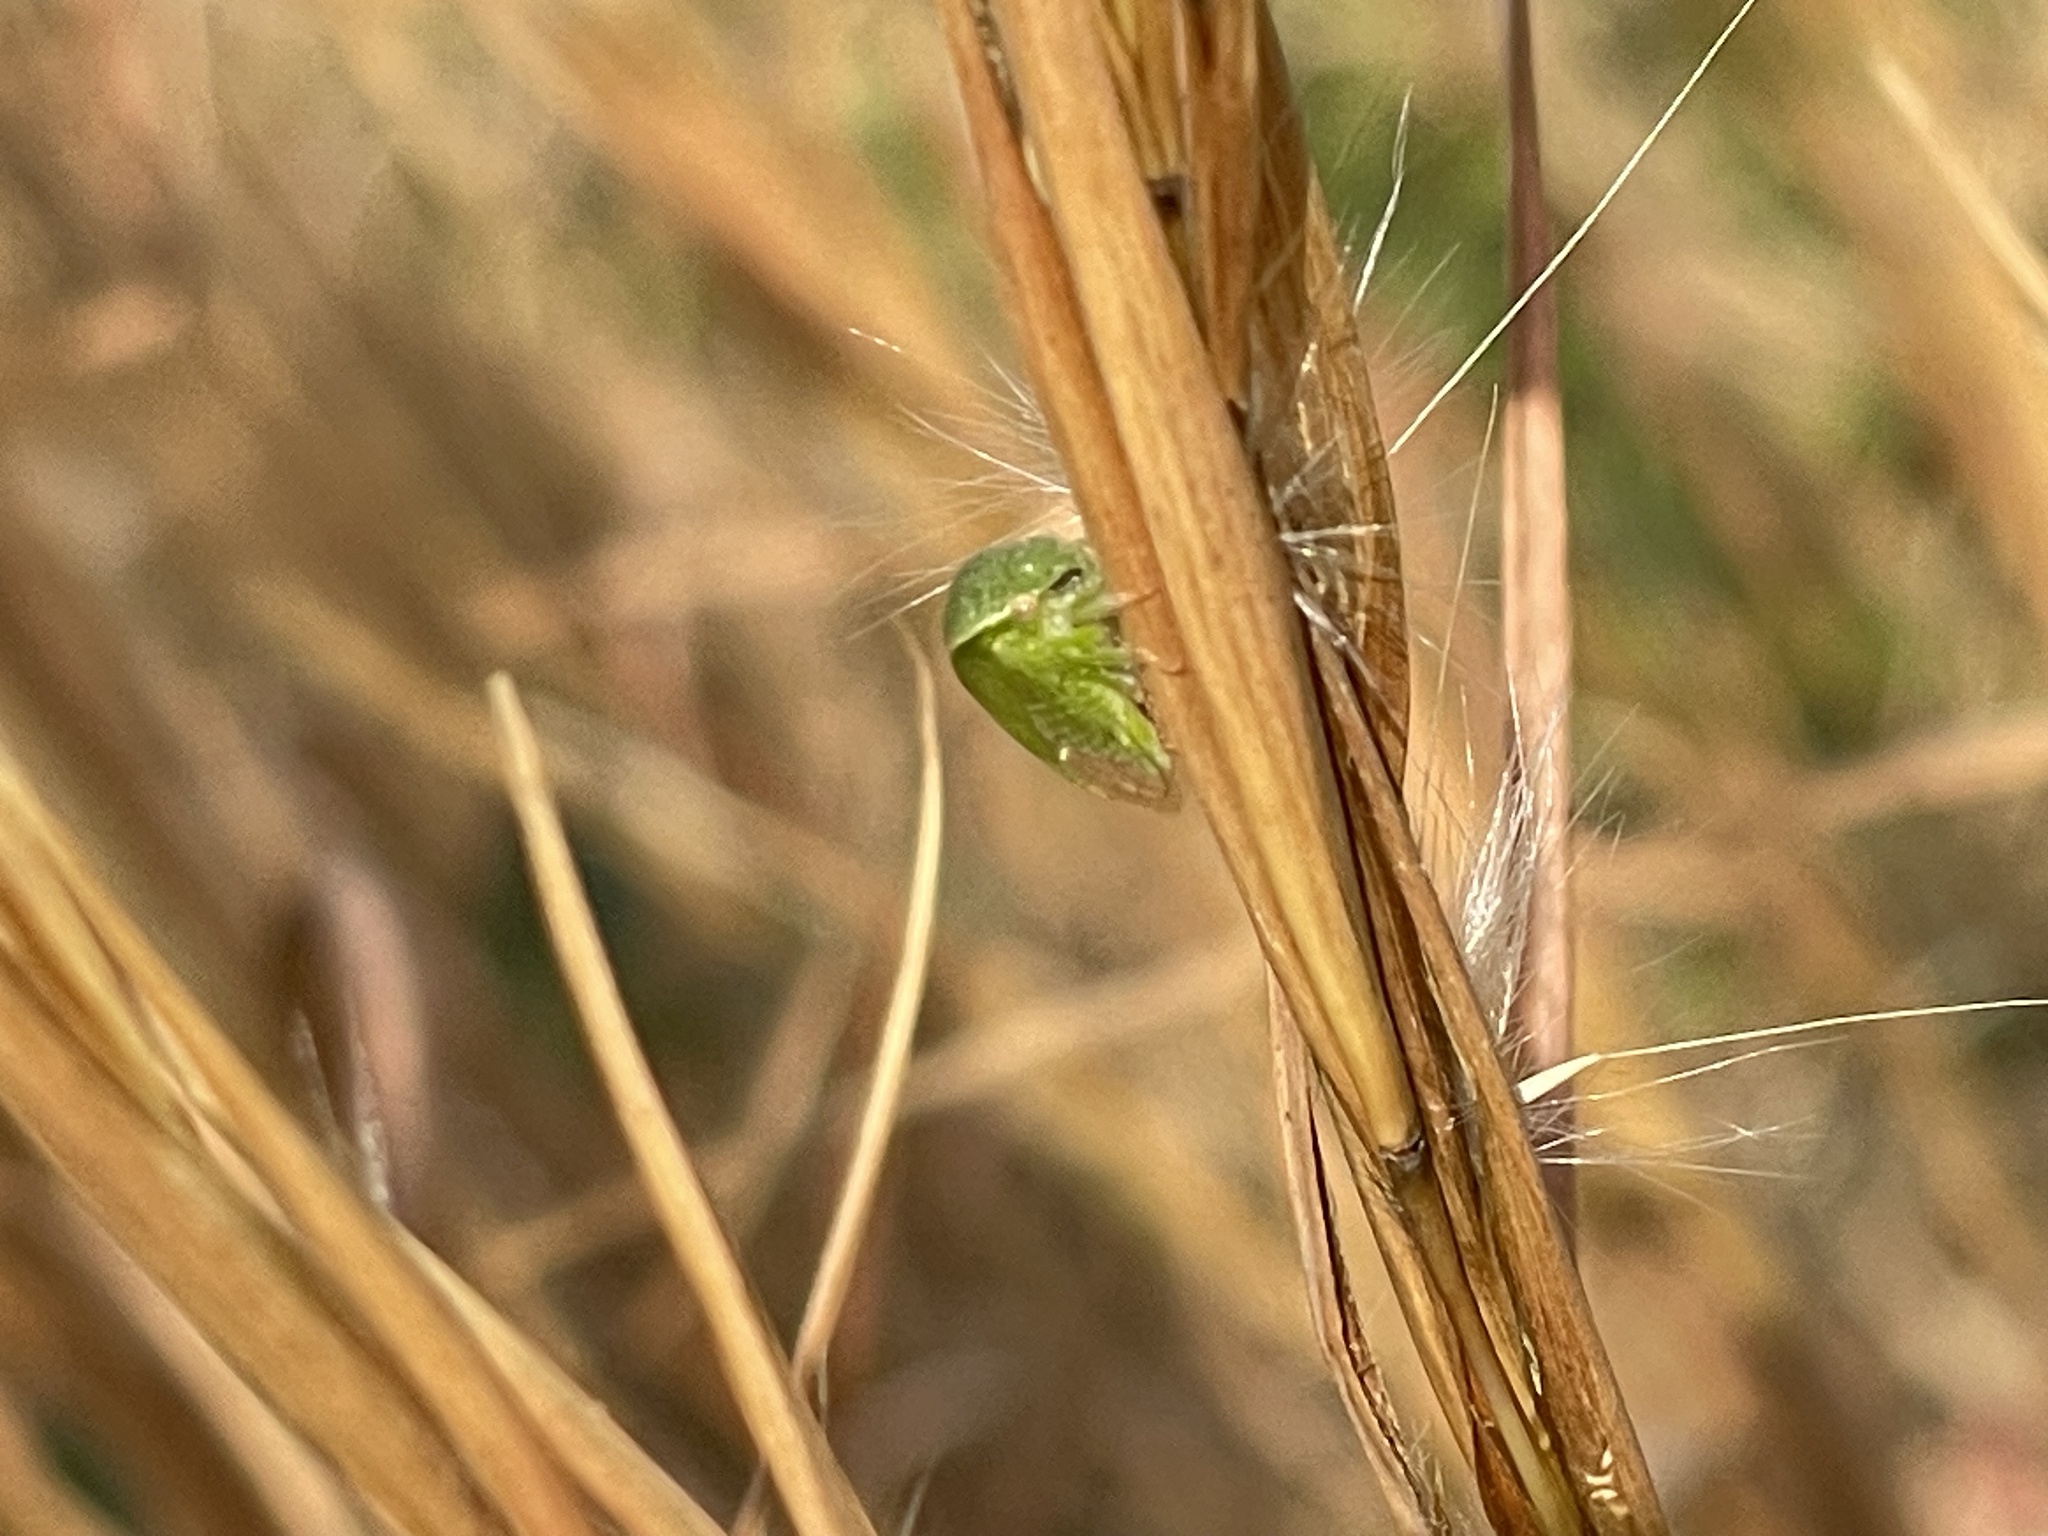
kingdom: Animalia
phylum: Arthropoda
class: Insecta
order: Hemiptera
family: Membracidae
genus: Spissistilus
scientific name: Spissistilus festina
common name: Membracid bug
